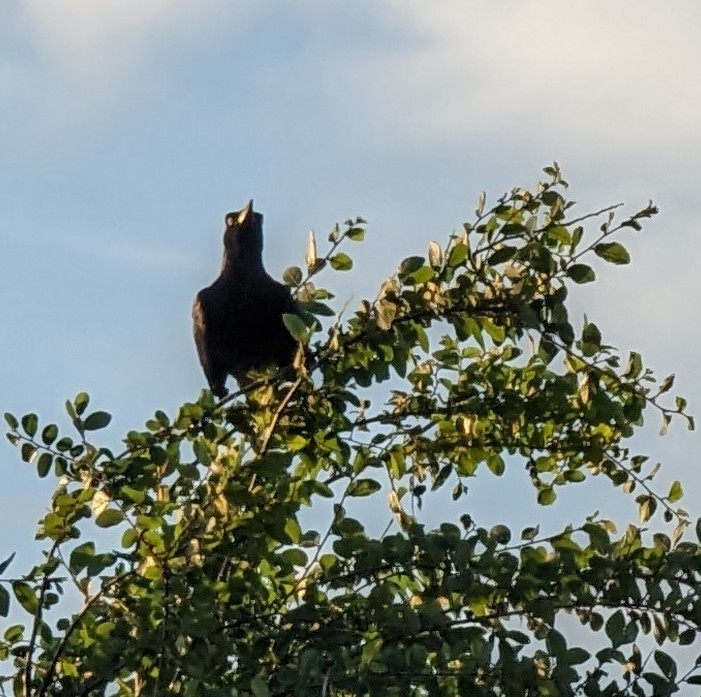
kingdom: Animalia
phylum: Chordata
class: Aves
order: Passeriformes
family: Icteridae
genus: Quiscalus
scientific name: Quiscalus mexicanus
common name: Great-tailed grackle
